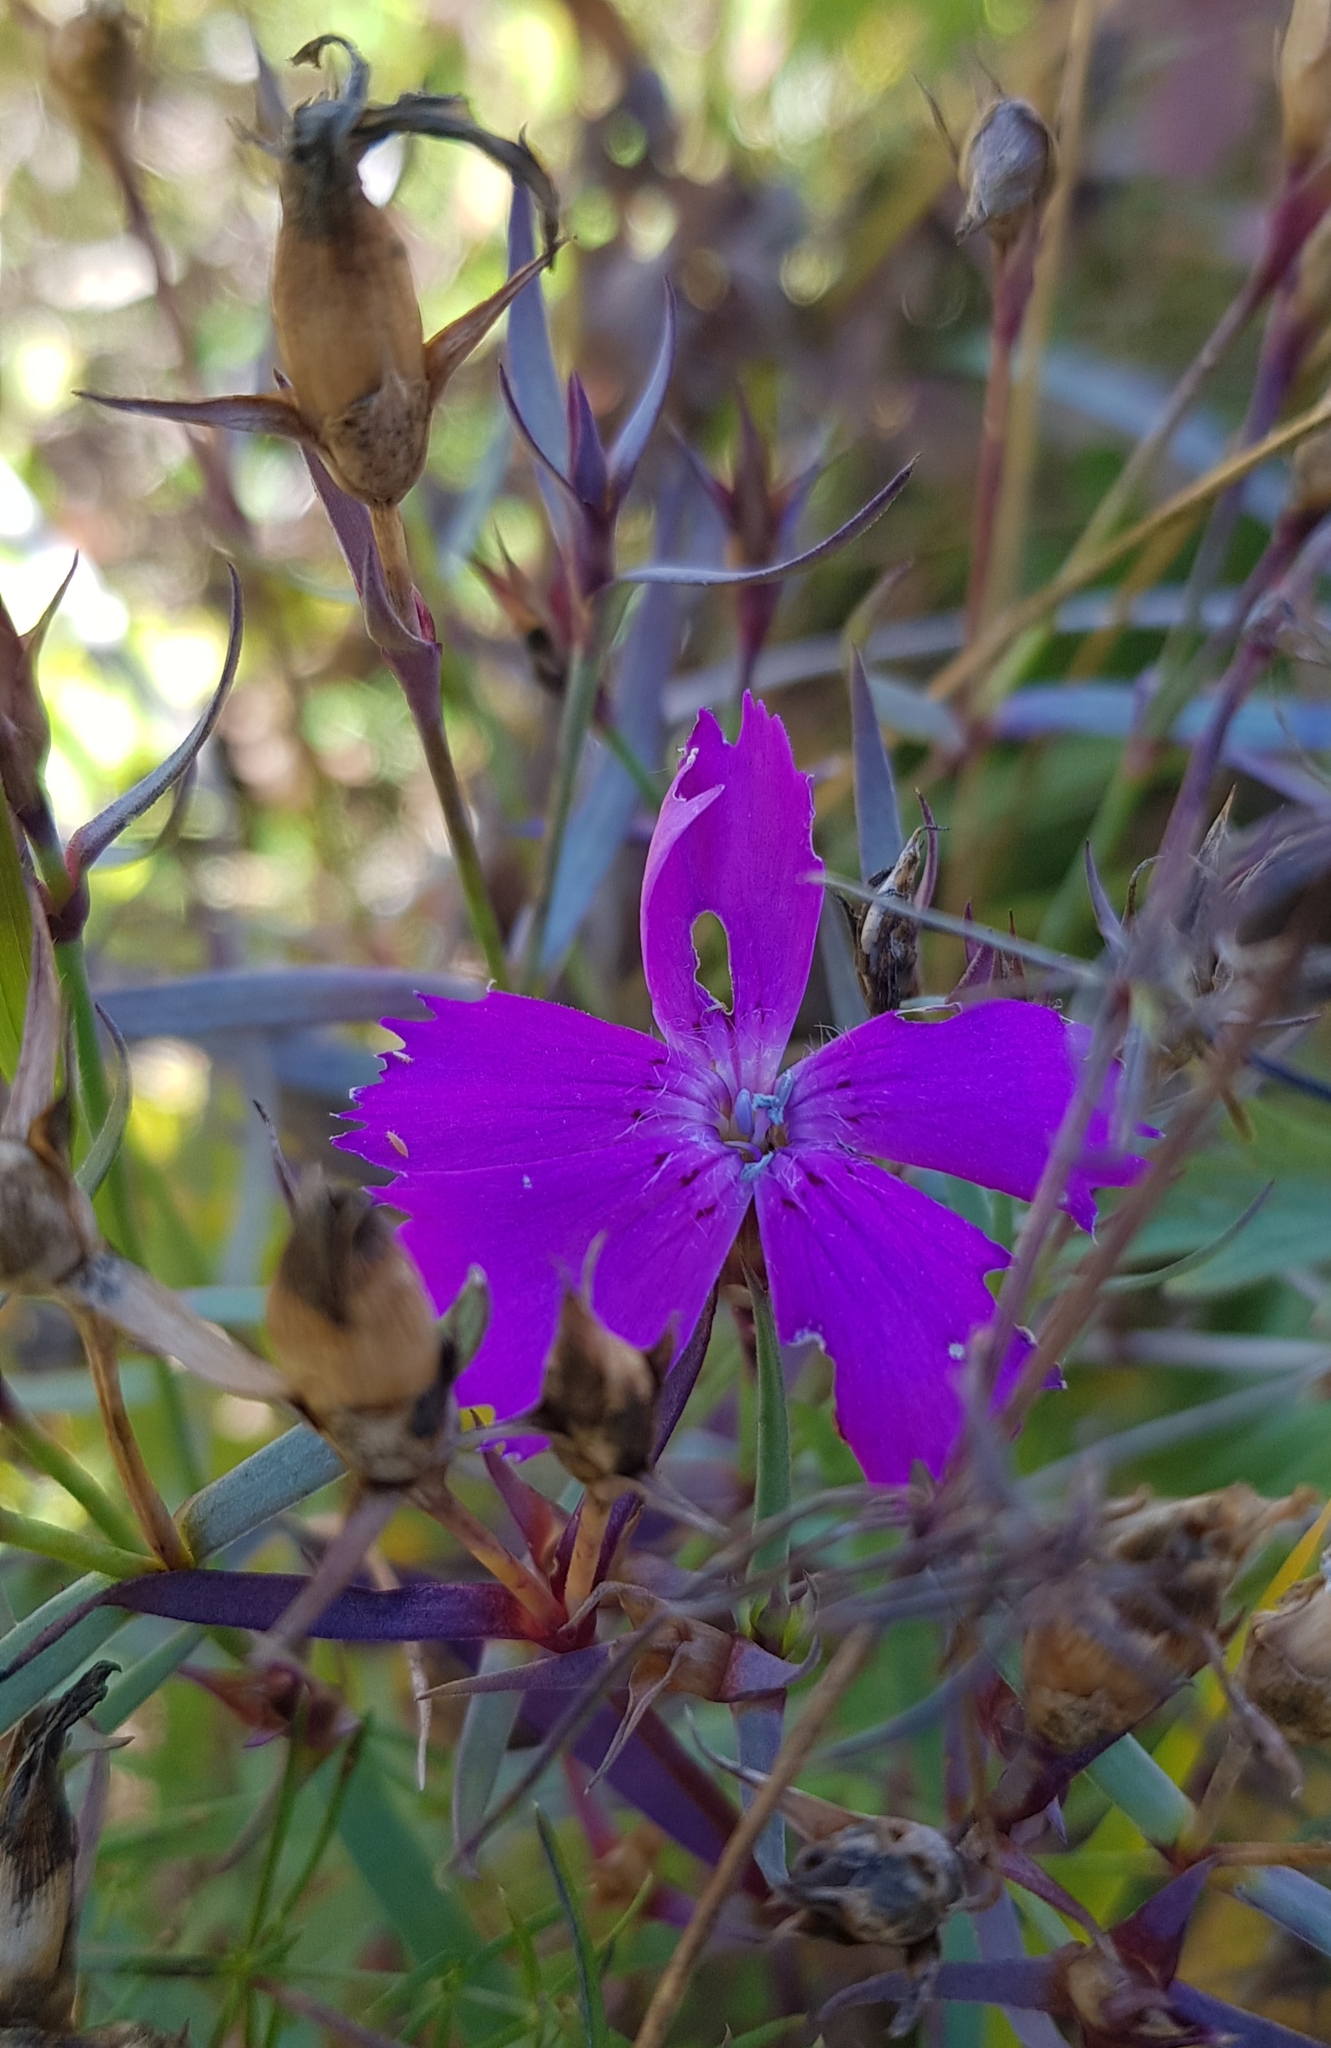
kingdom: Plantae
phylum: Tracheophyta
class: Magnoliopsida
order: Caryophyllales
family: Caryophyllaceae
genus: Dianthus
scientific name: Dianthus chinensis
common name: Rainbow pink
